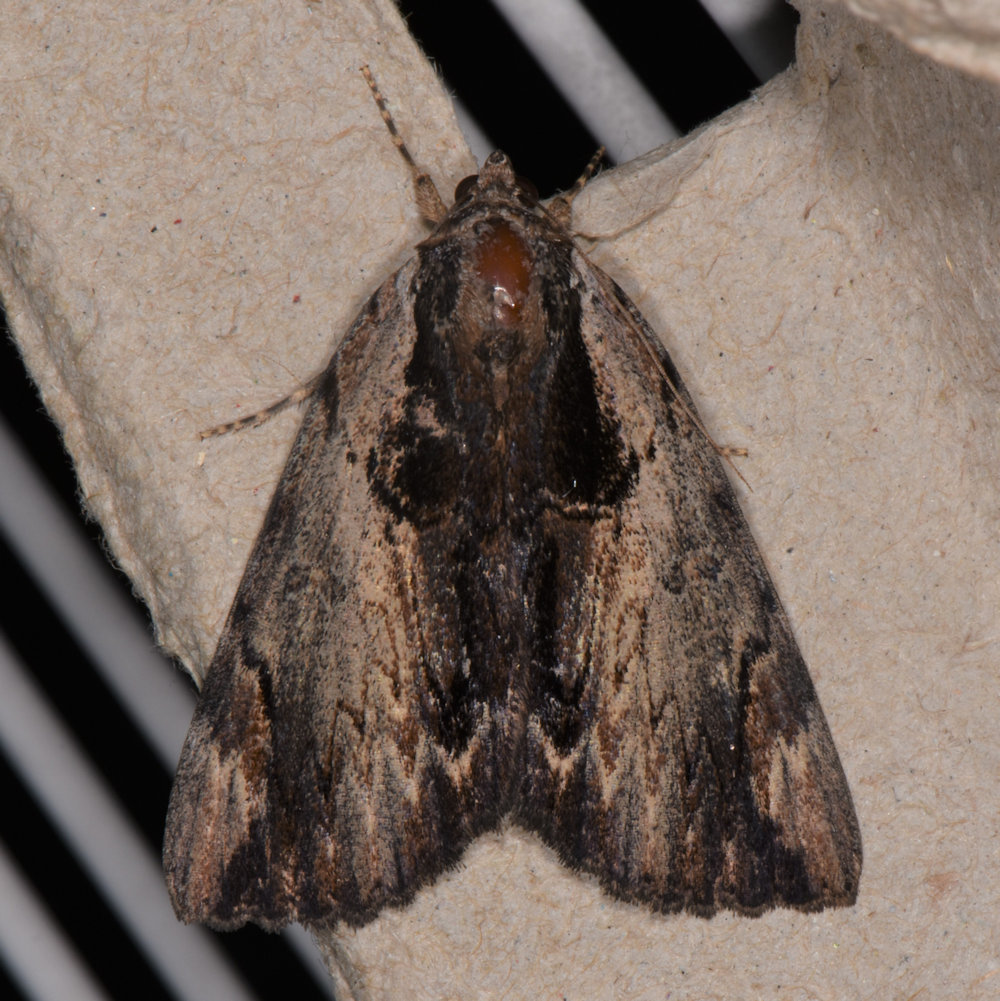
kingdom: Animalia
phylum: Arthropoda
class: Insecta
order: Lepidoptera
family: Erebidae
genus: Catocala
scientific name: Catocala ultronia
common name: Ultronia underwing
